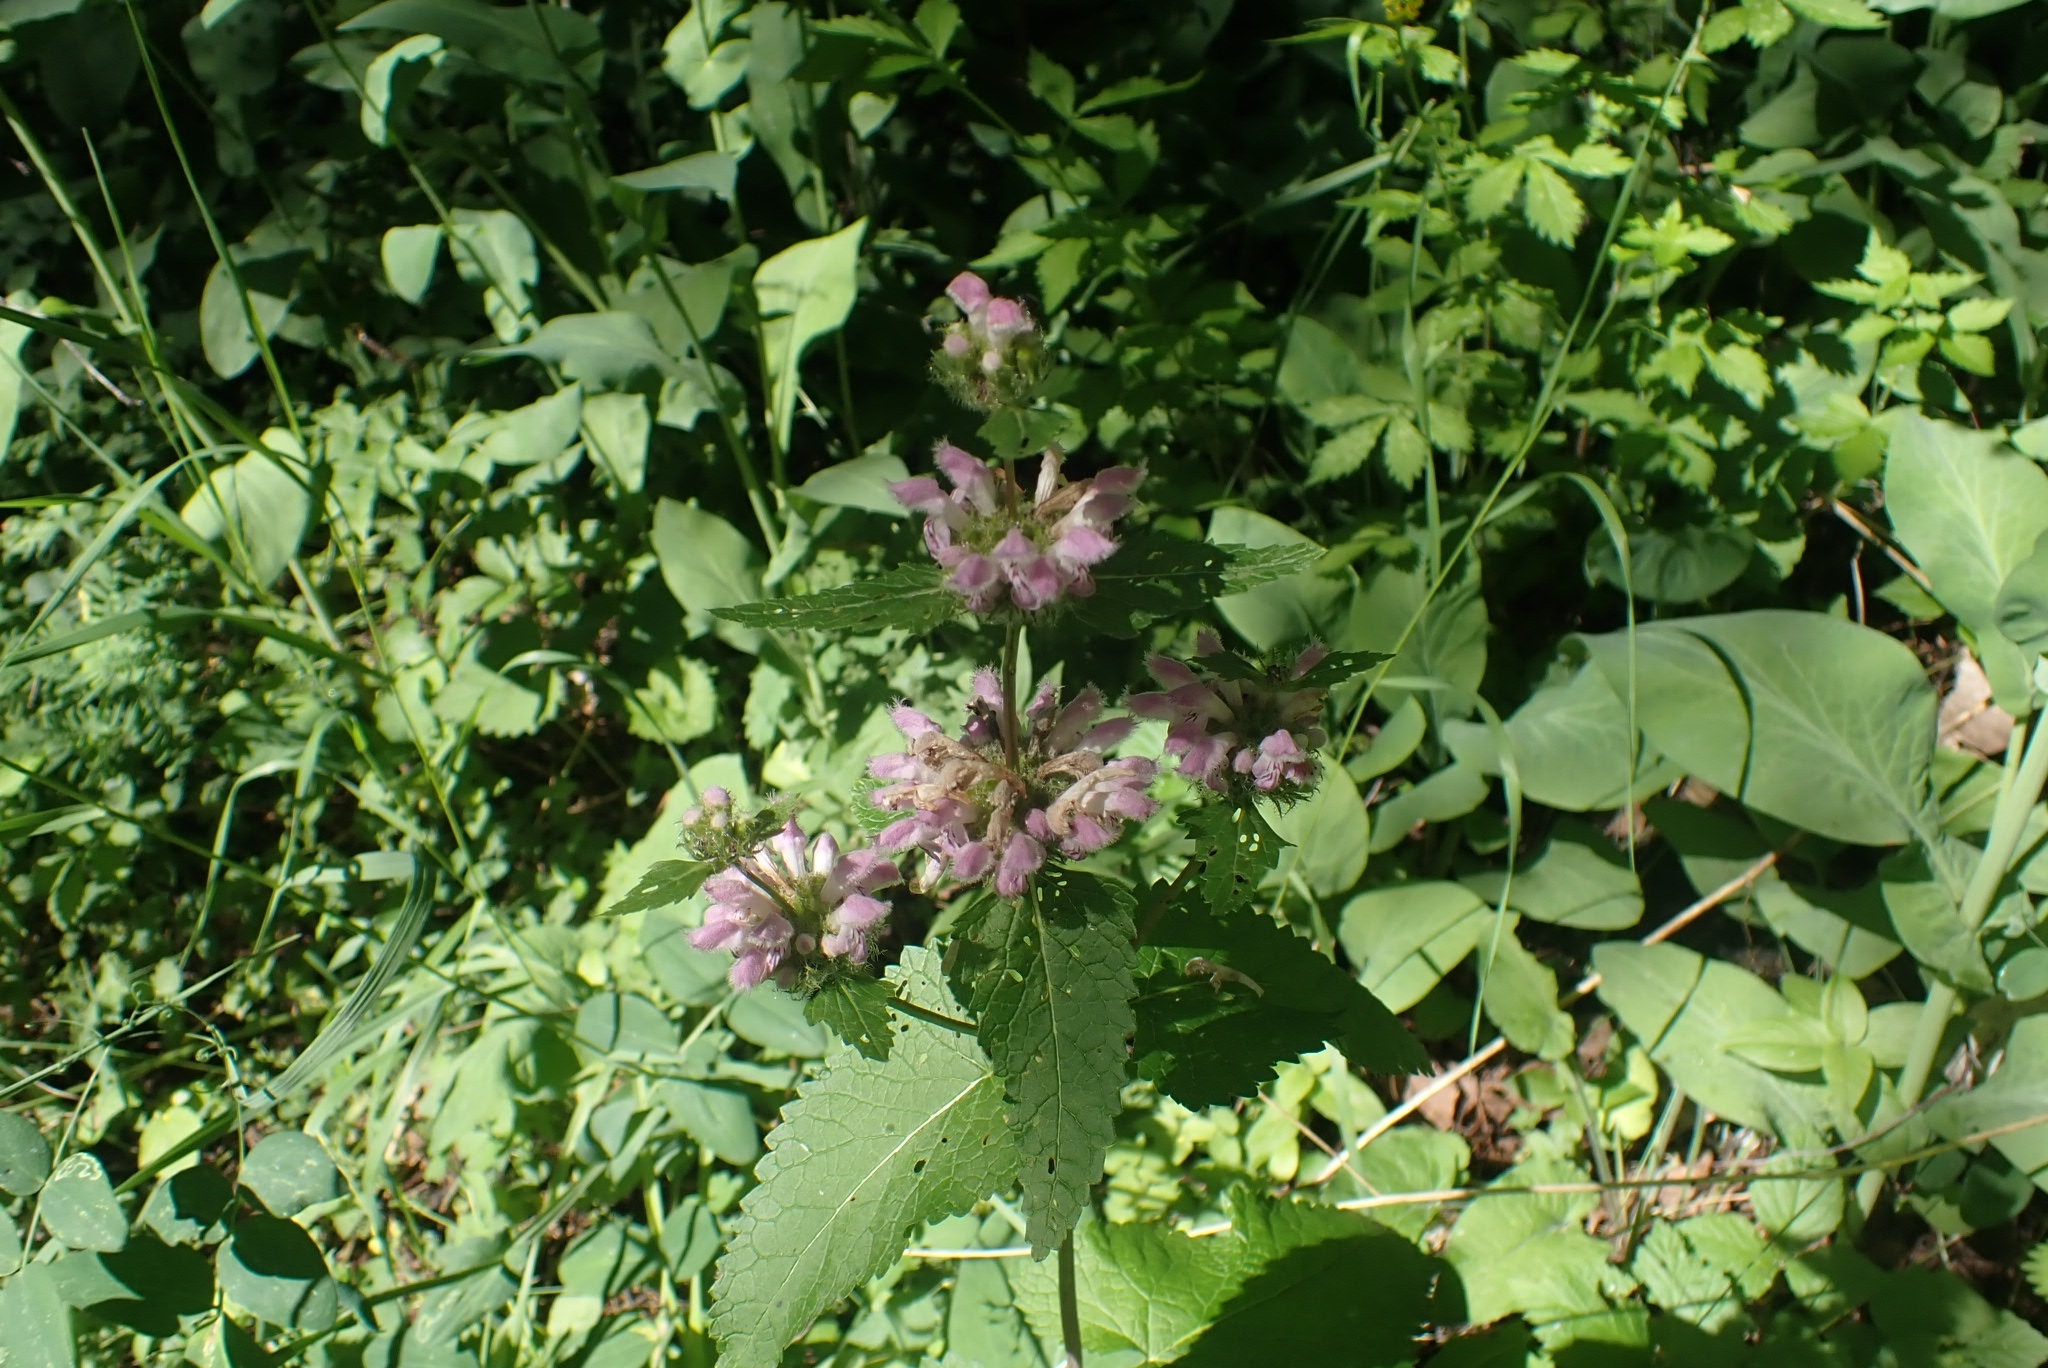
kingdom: Plantae
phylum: Tracheophyta
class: Magnoliopsida
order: Lamiales
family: Lamiaceae
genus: Phlomoides
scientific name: Phlomoides tuberosa
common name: Tuberous jerusalem sage
